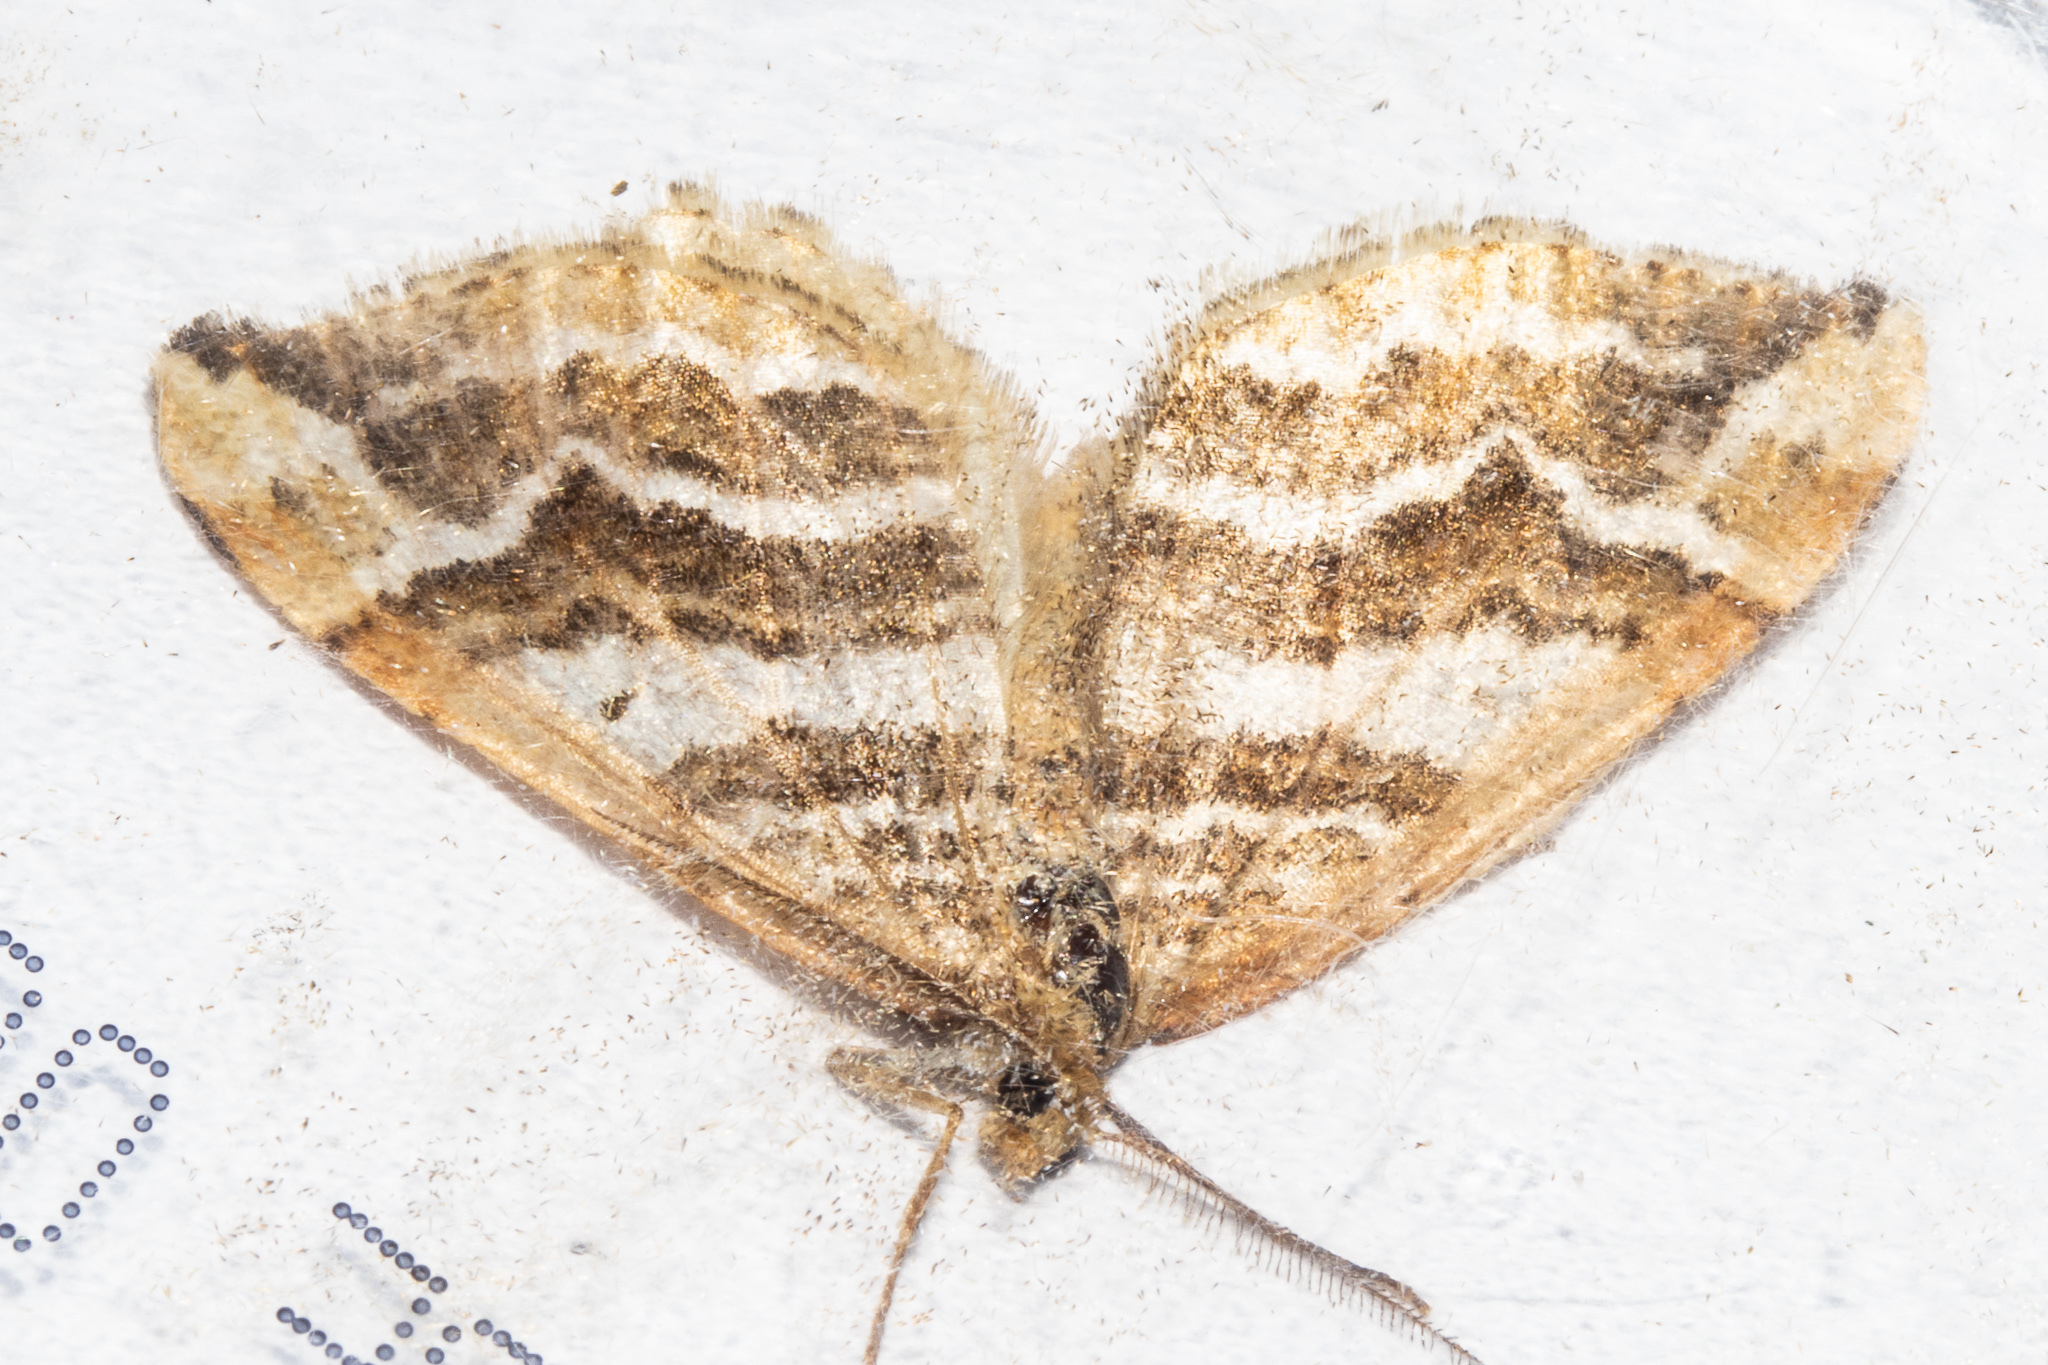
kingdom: Animalia
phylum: Arthropoda
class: Insecta
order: Lepidoptera
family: Geometridae
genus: Asaphodes
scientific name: Asaphodes cataphracta
